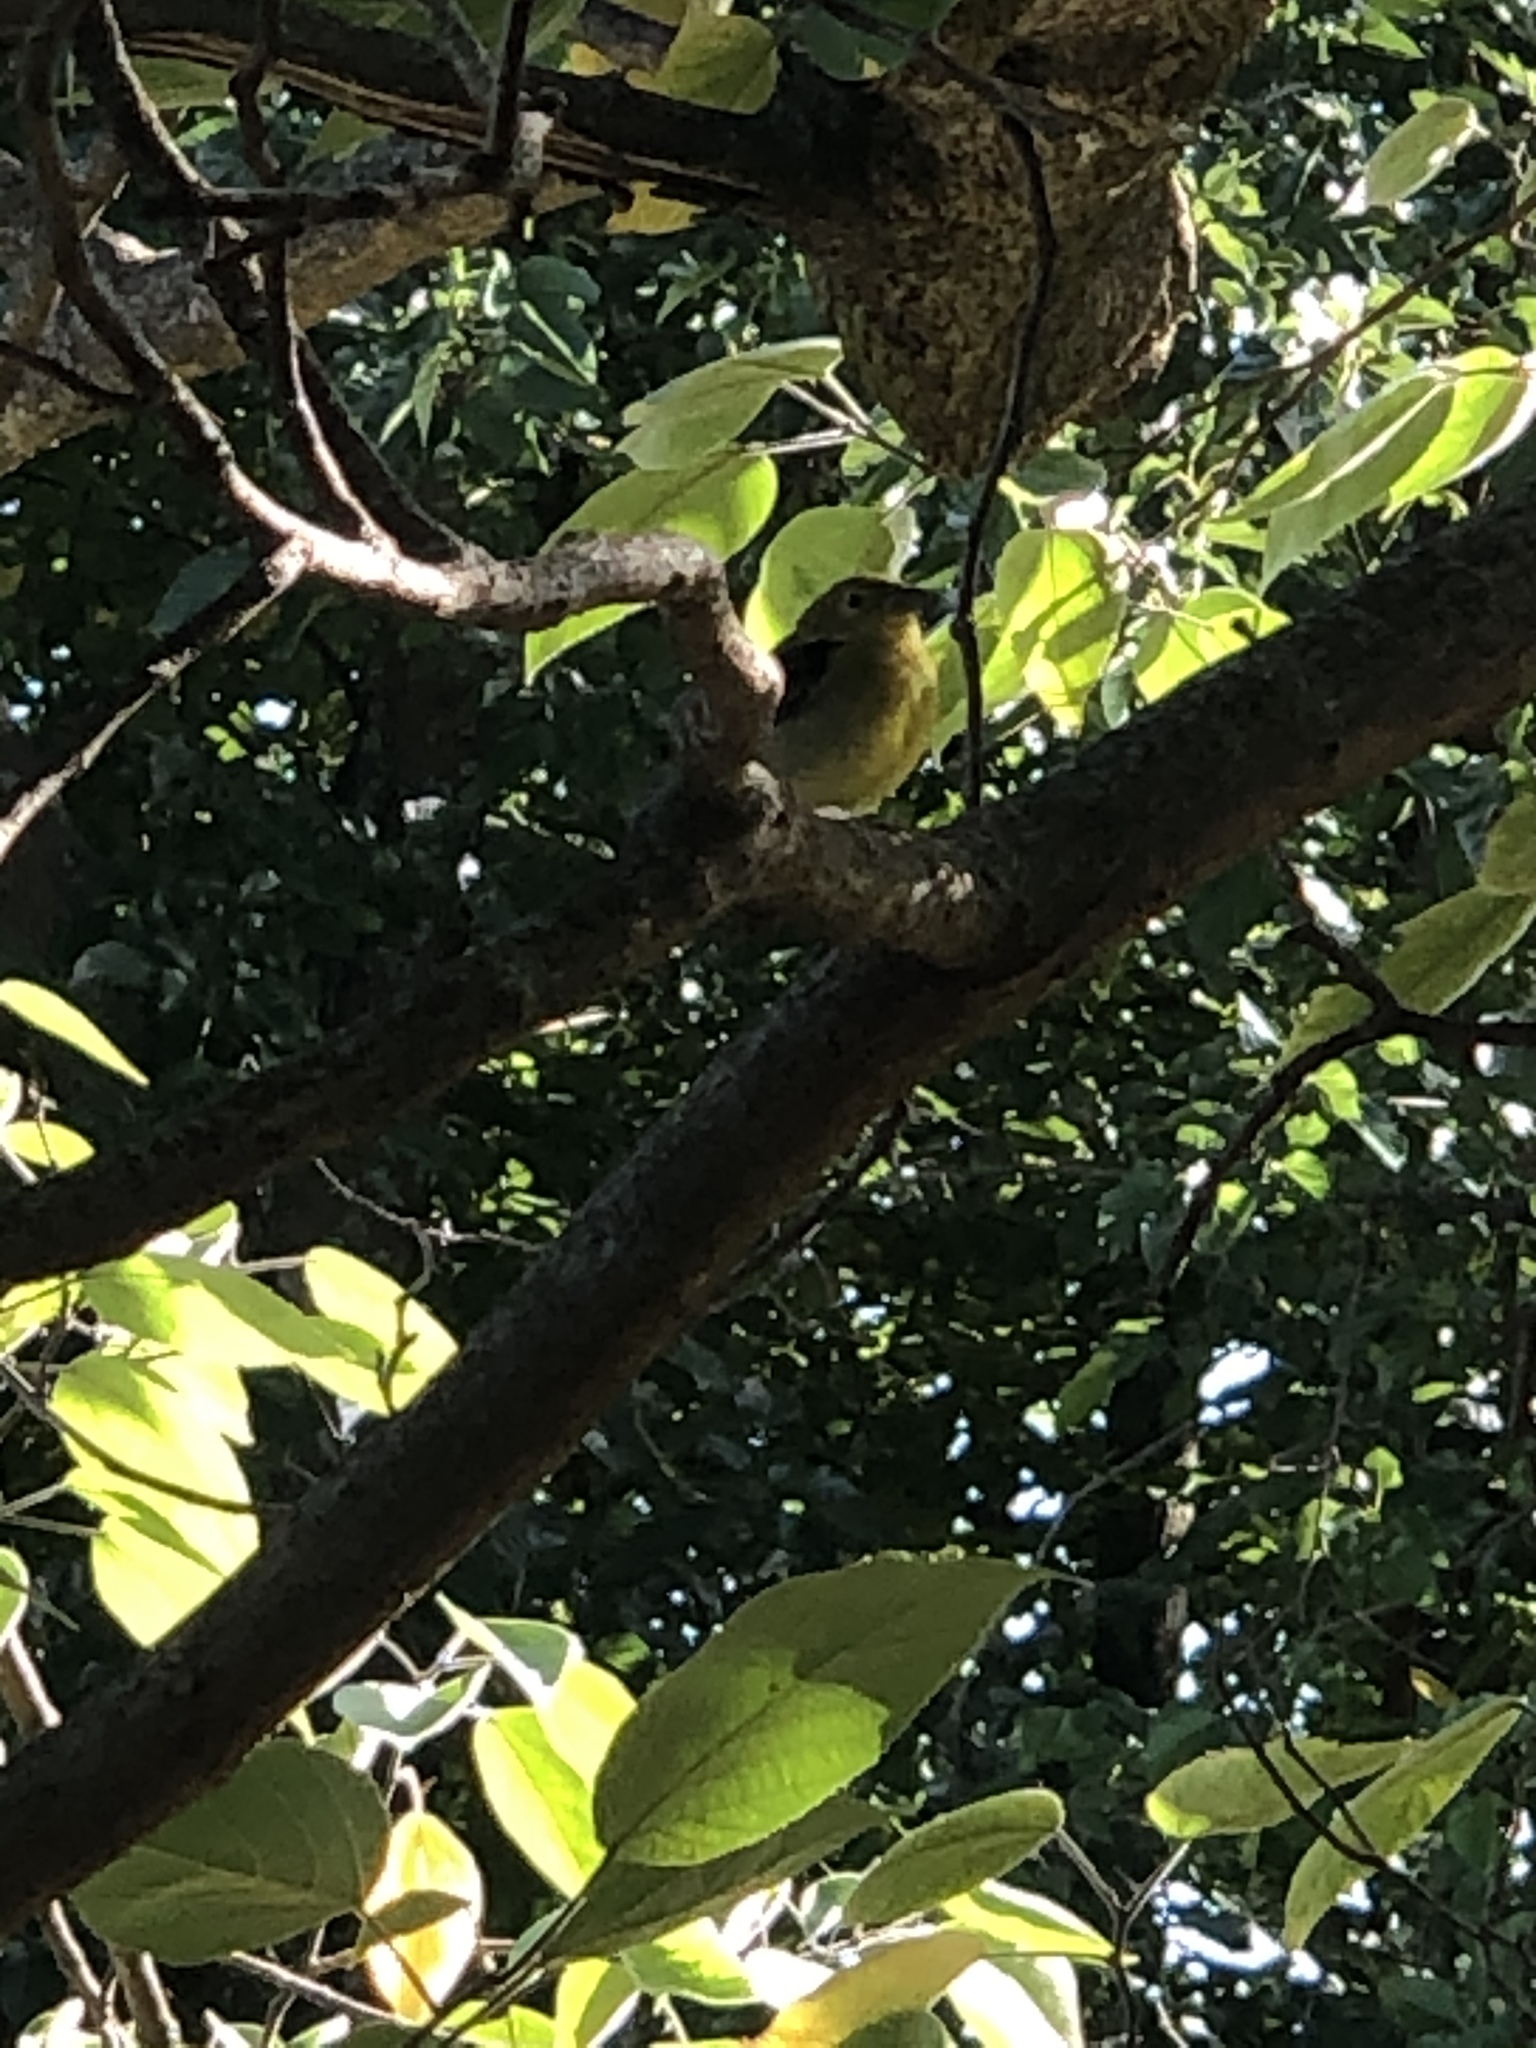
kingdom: Animalia
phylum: Chordata
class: Aves
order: Passeriformes
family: Cardinalidae
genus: Piranga
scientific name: Piranga olivacea
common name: Scarlet tanager
